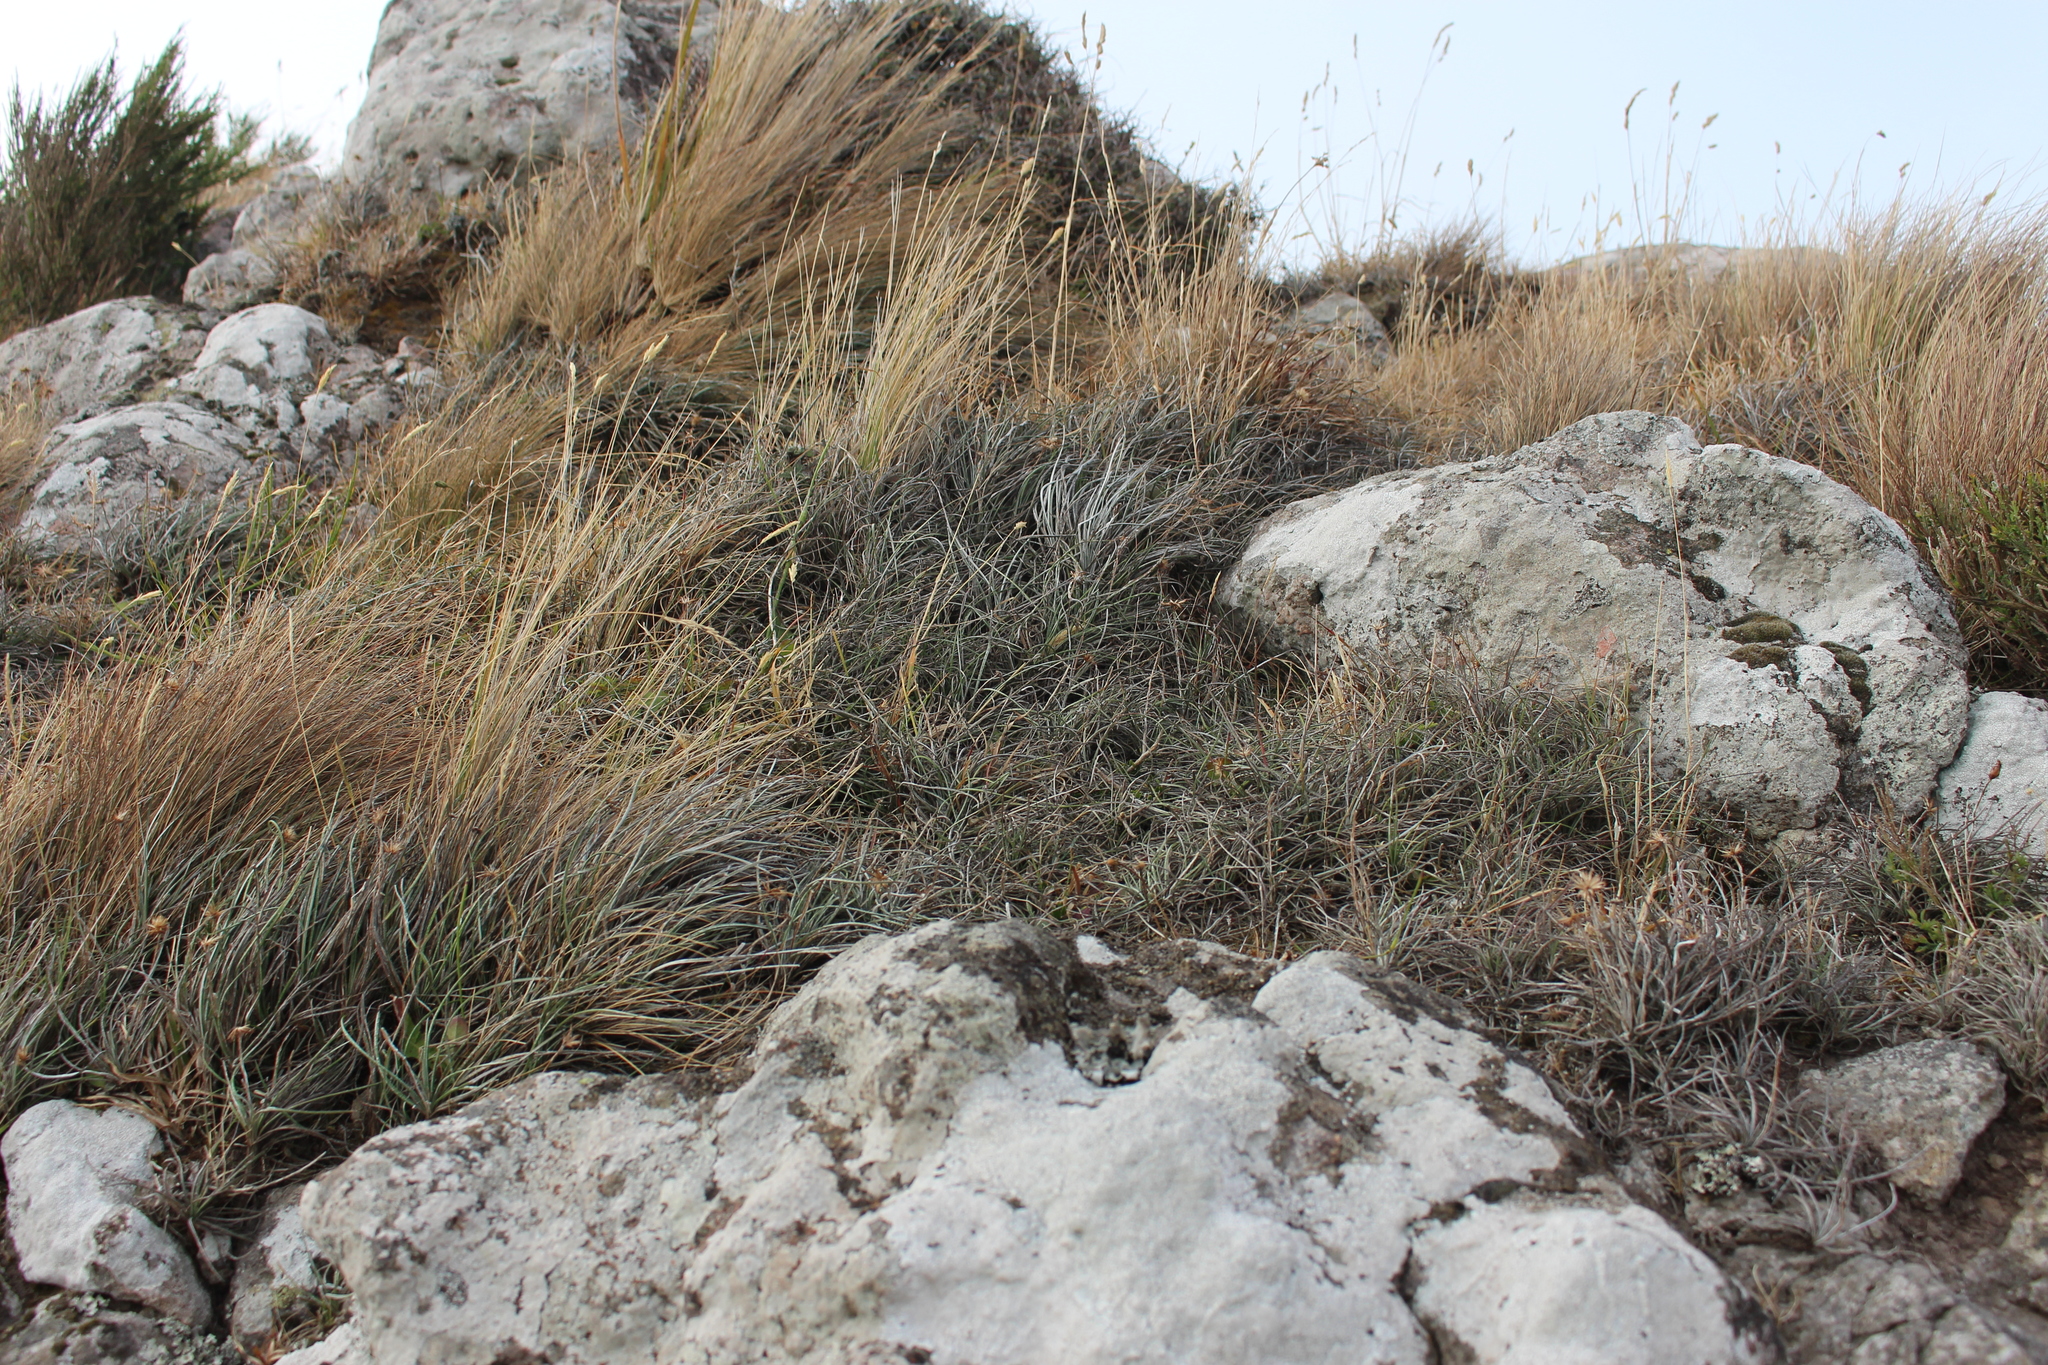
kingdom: Plantae
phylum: Tracheophyta
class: Magnoliopsida
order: Asterales
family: Asteraceae
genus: Celmisia
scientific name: Celmisia gracilenta
